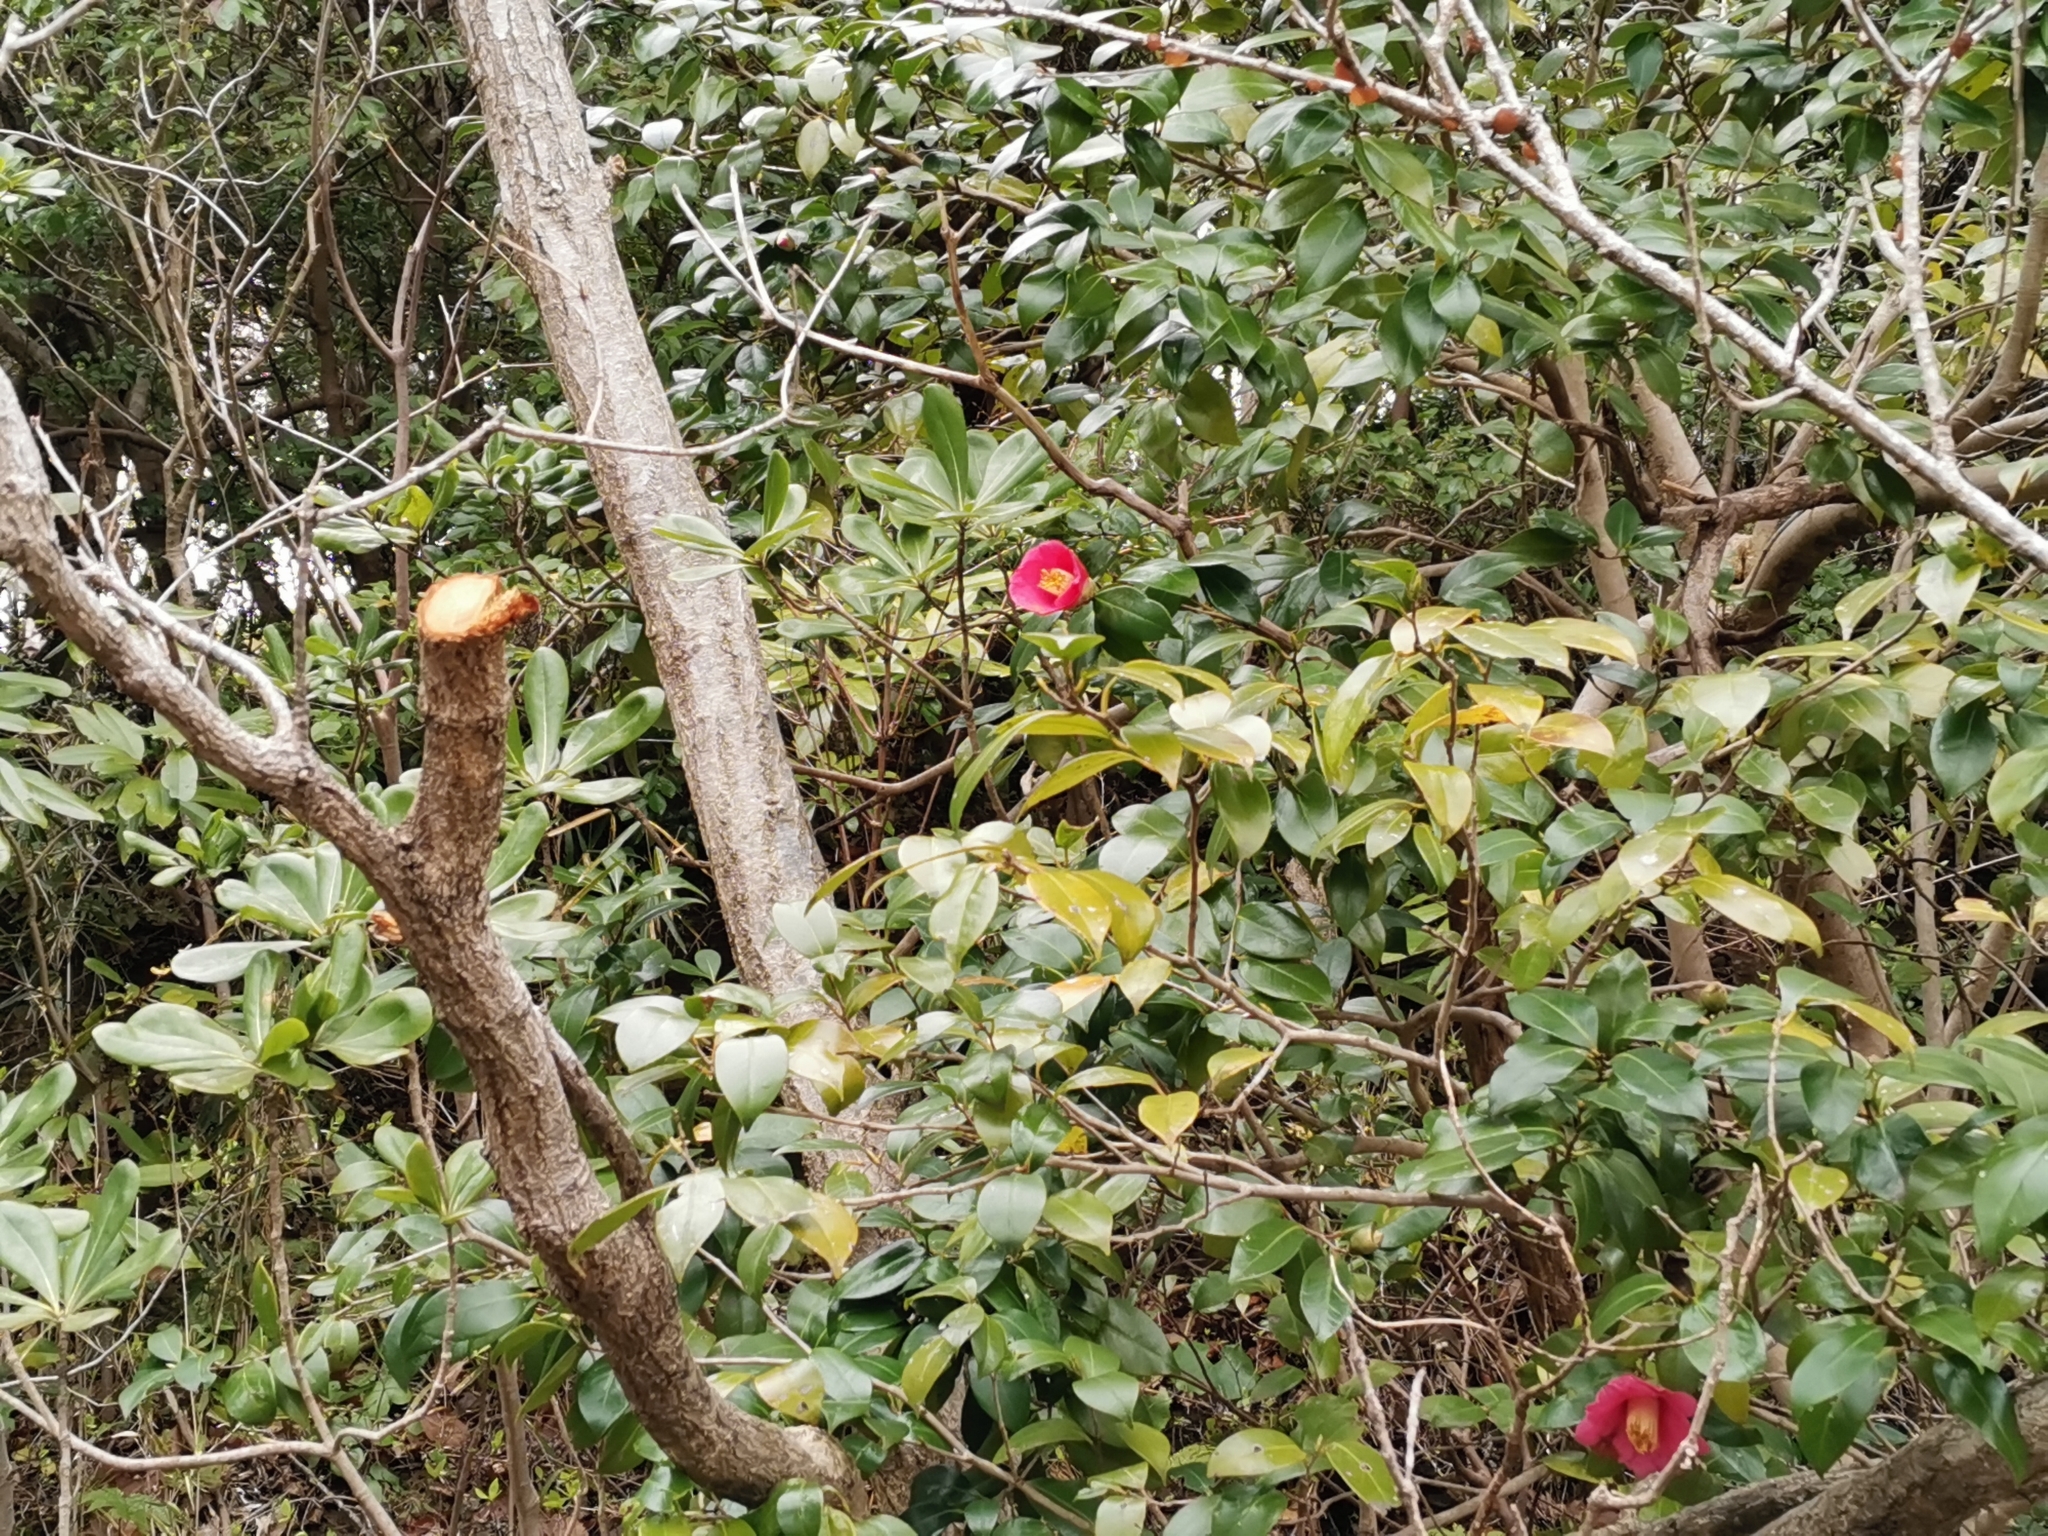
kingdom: Plantae
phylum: Tracheophyta
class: Magnoliopsida
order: Ericales
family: Theaceae
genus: Camellia
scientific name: Camellia japonica
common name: Camellia
